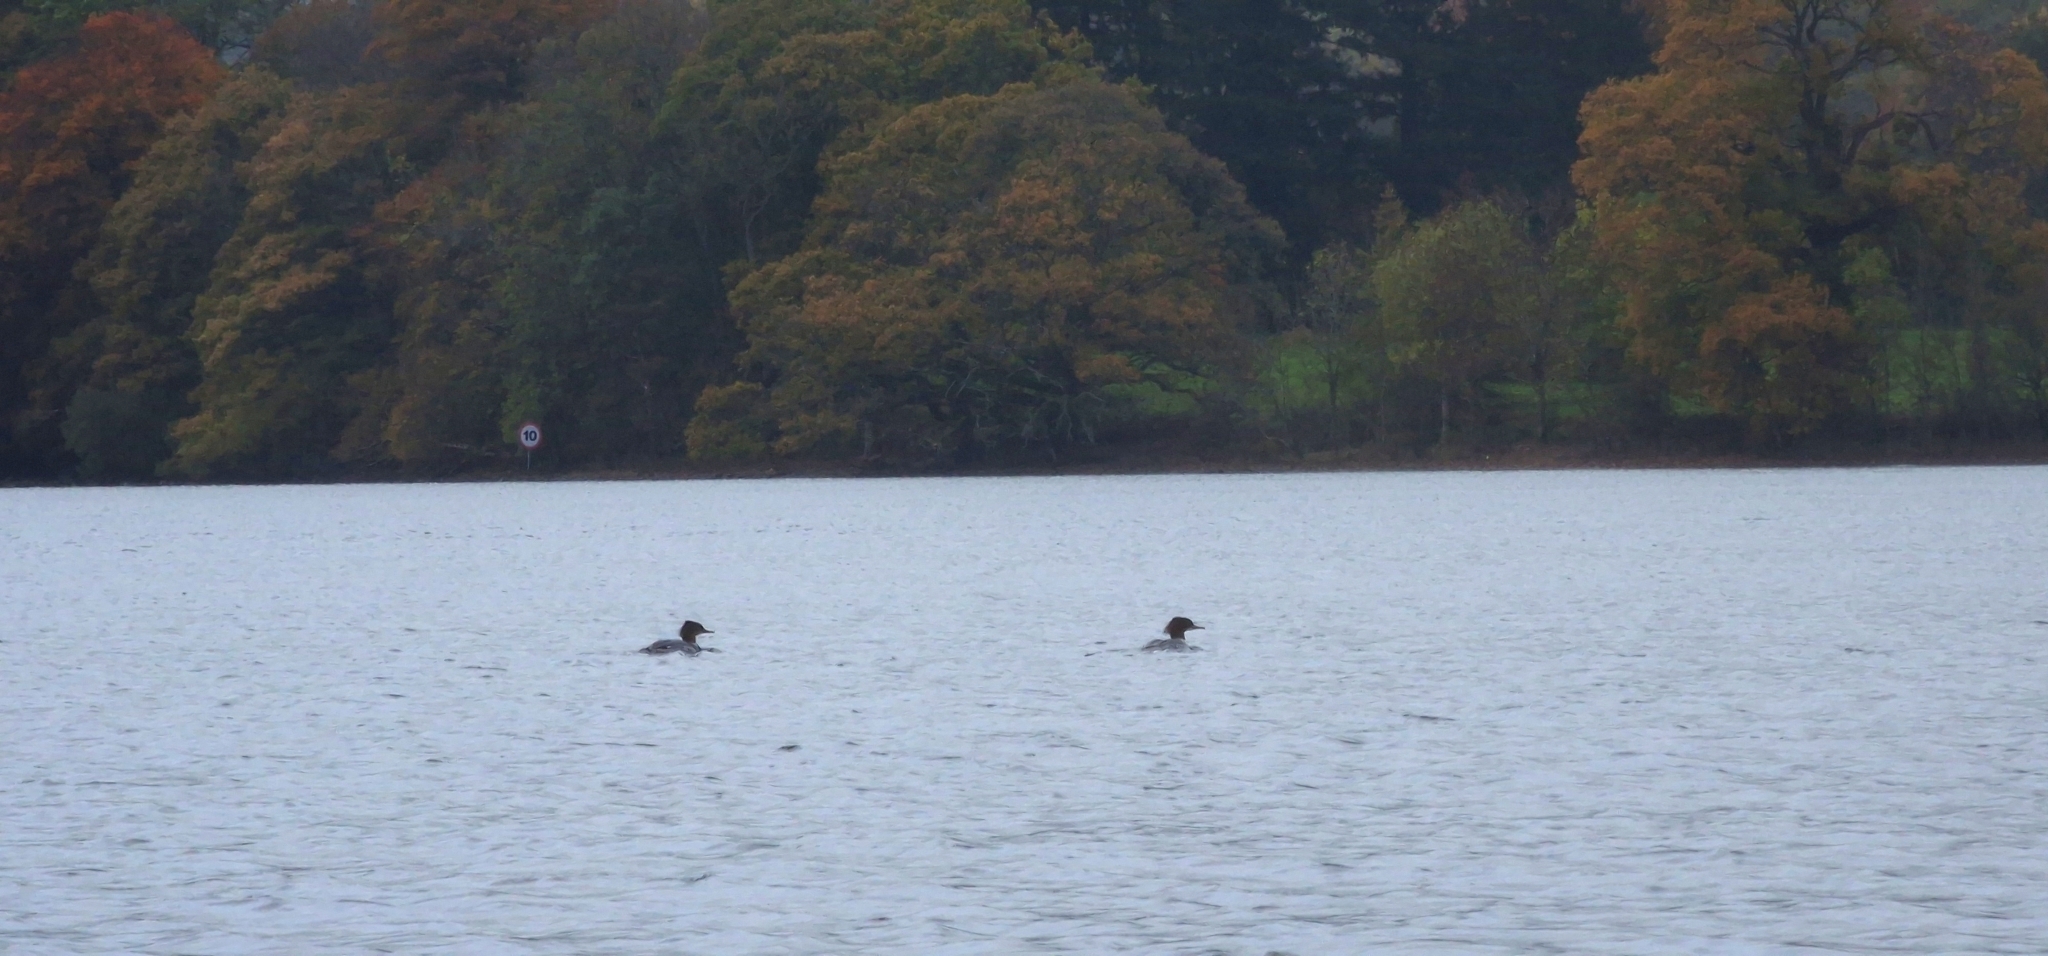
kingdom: Animalia
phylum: Chordata
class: Aves
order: Anseriformes
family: Anatidae
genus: Mergus
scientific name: Mergus merganser
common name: Common merganser
